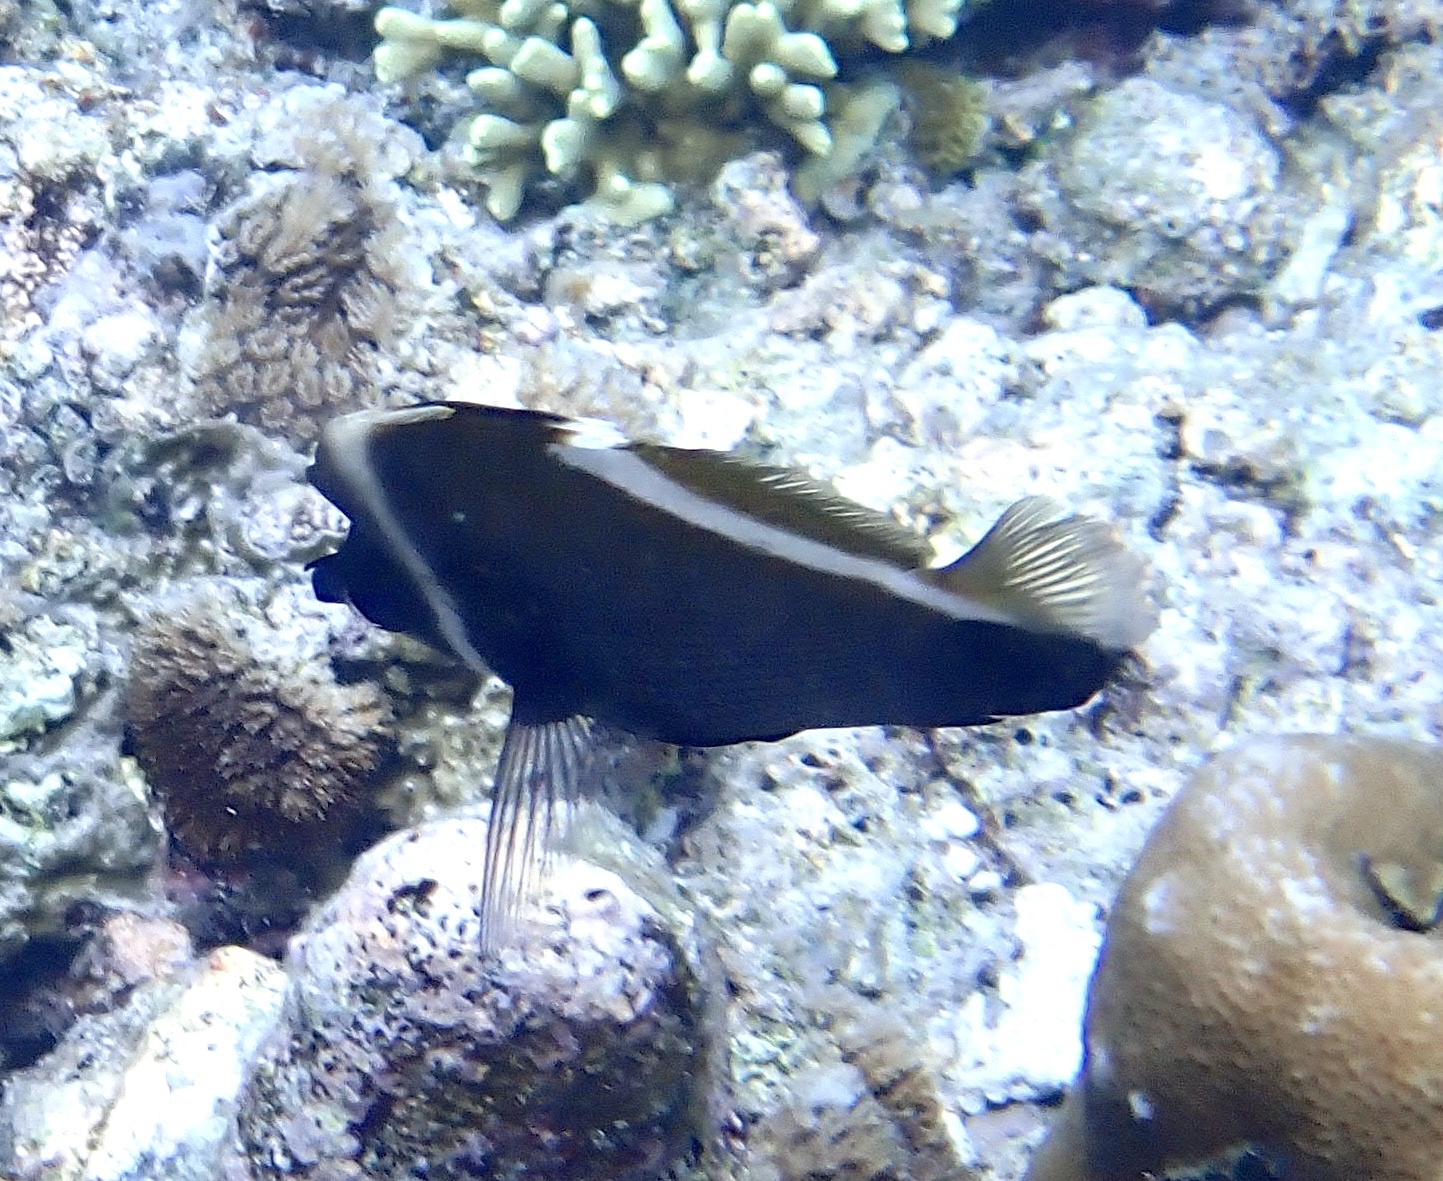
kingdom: Animalia
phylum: Chordata
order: Perciformes
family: Chaetodontidae
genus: Heniochus
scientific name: Heniochus varius
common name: Horned bannerfish
